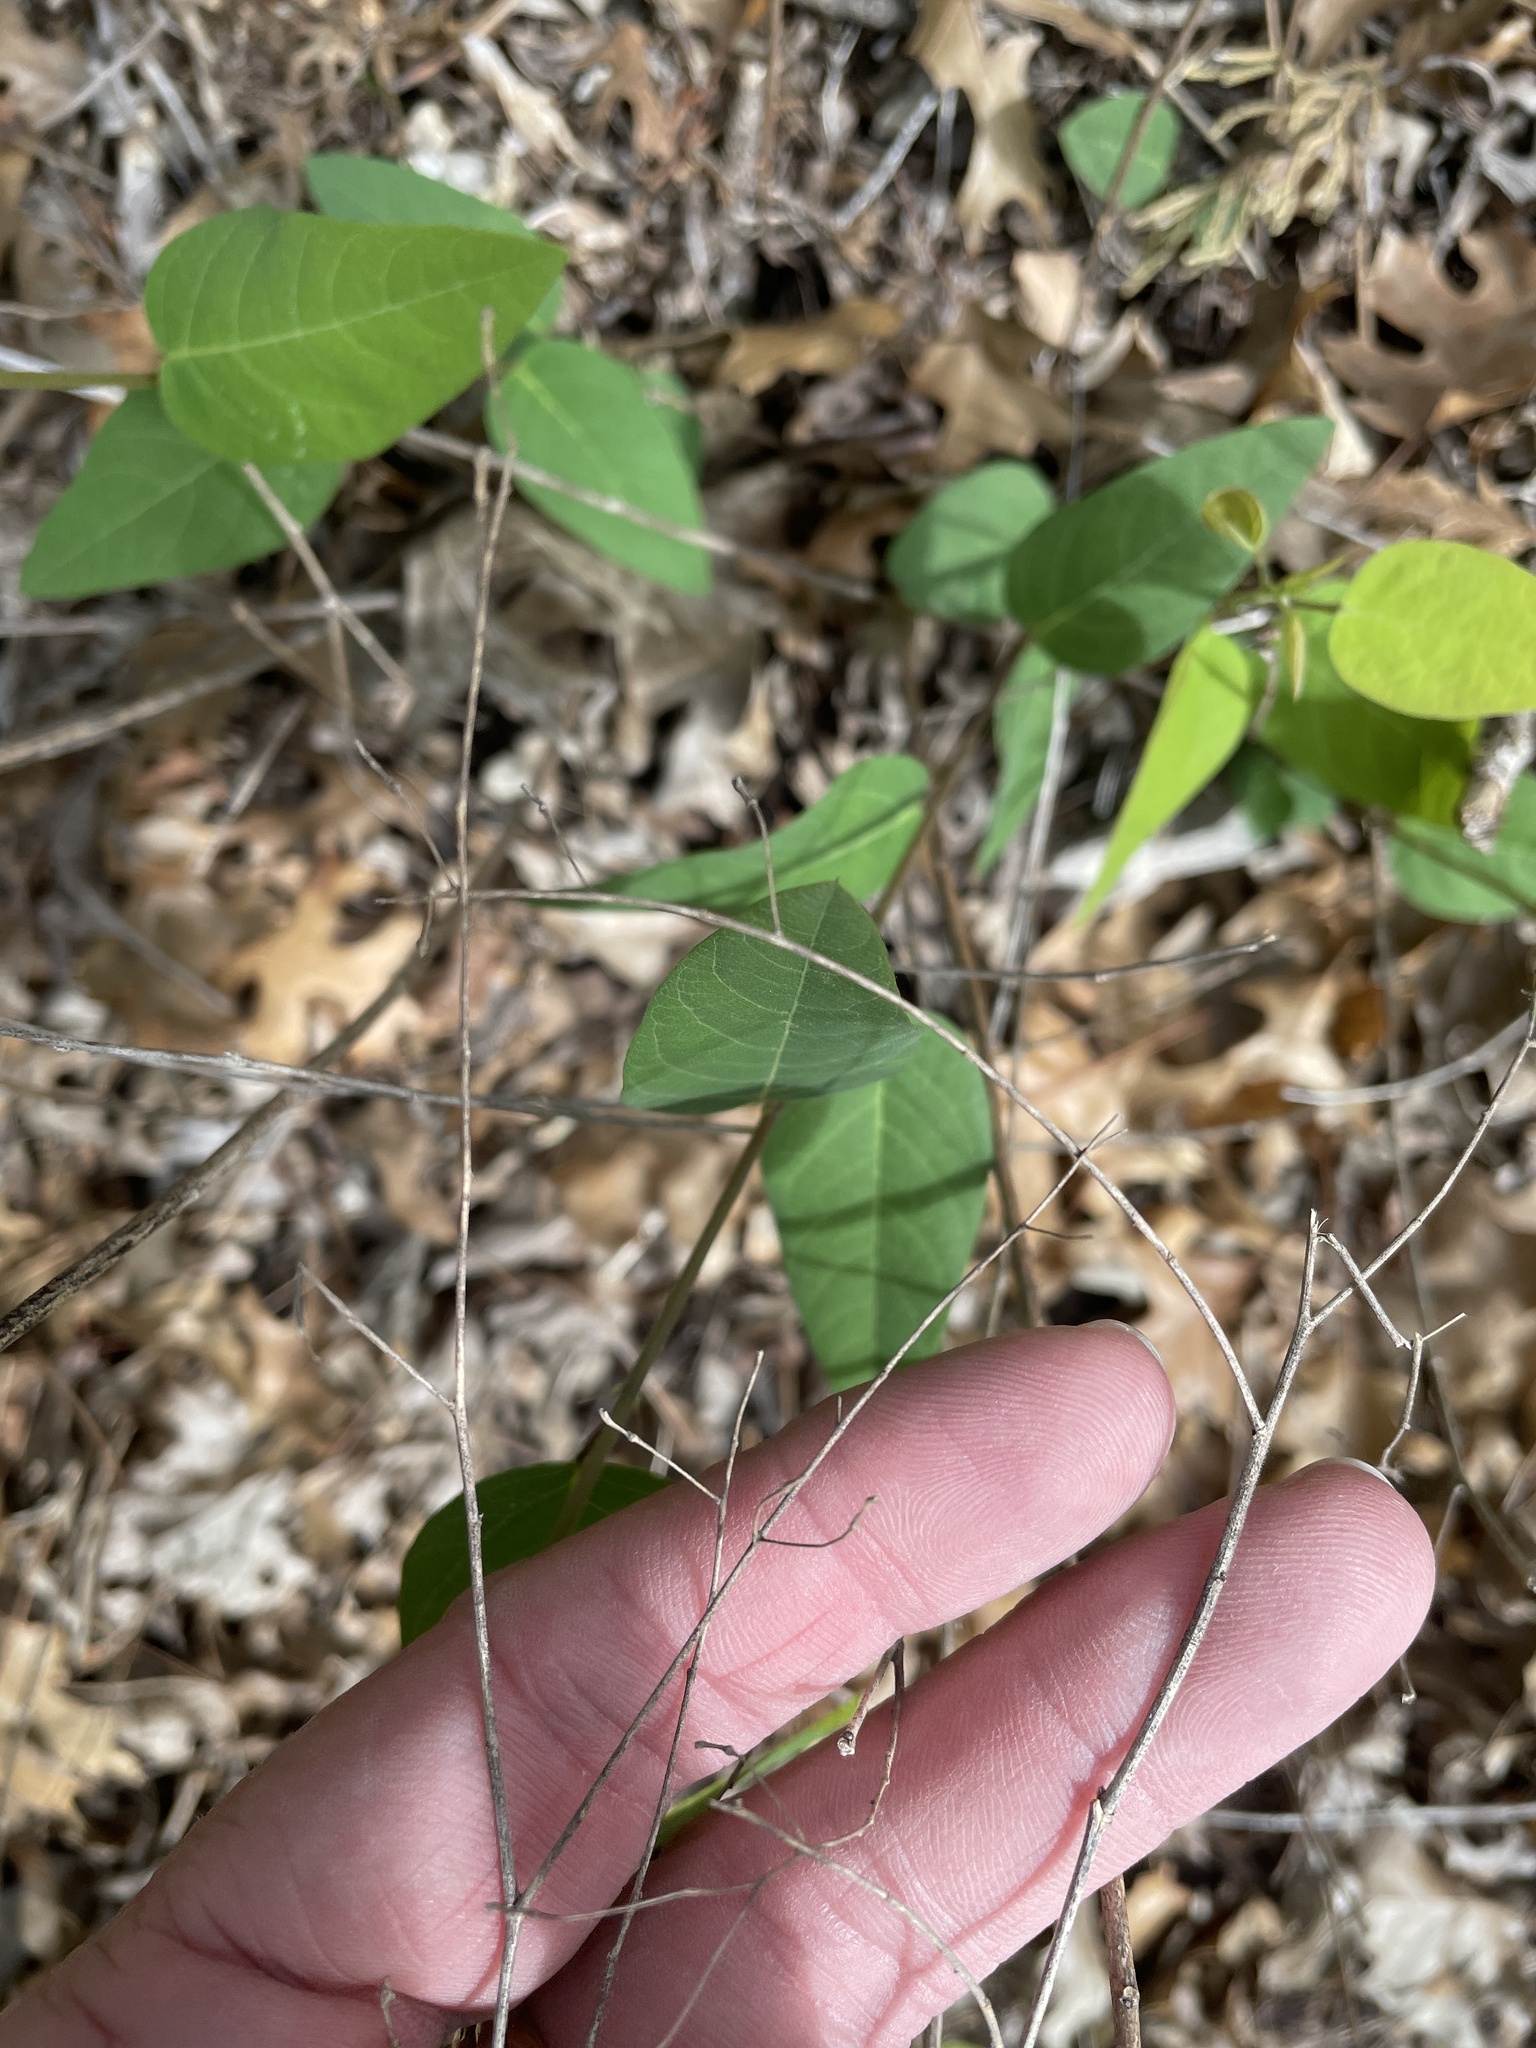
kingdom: Plantae
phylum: Tracheophyta
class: Magnoliopsida
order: Fabales
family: Fabaceae
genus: Desmodium
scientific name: Desmodium psilophyllum
